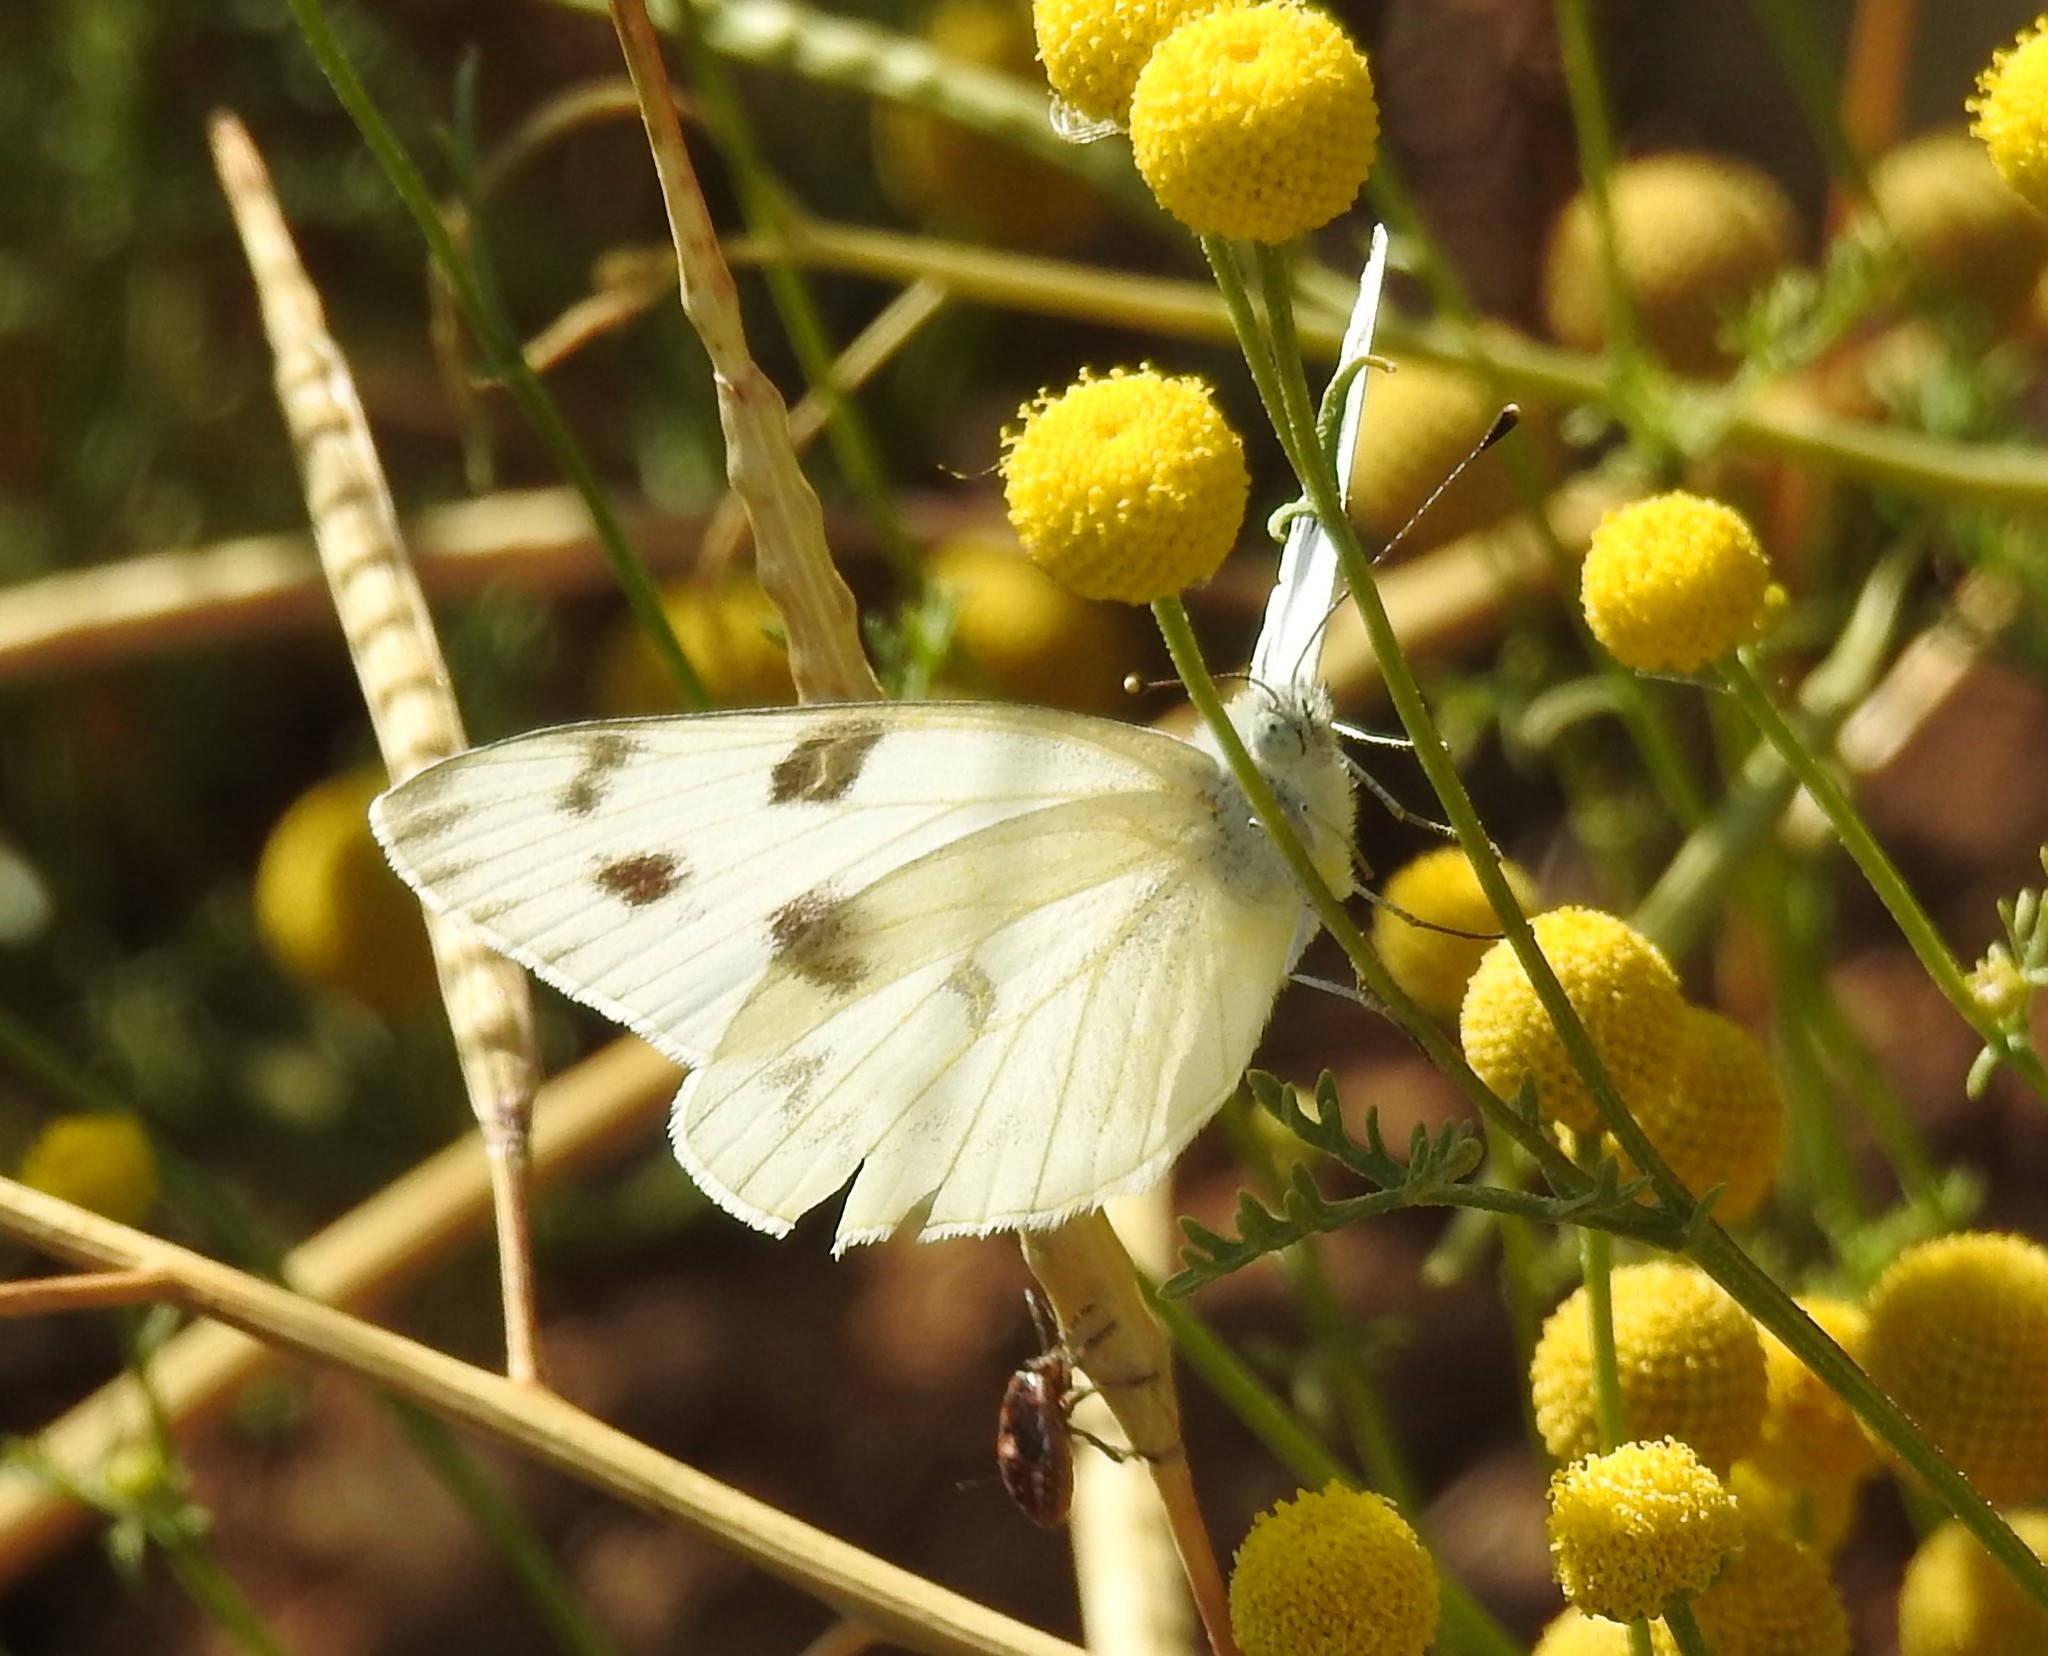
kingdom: Animalia
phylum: Arthropoda
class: Insecta
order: Lepidoptera
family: Pieridae
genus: Pontia
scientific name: Pontia protodice
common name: Checkered white
